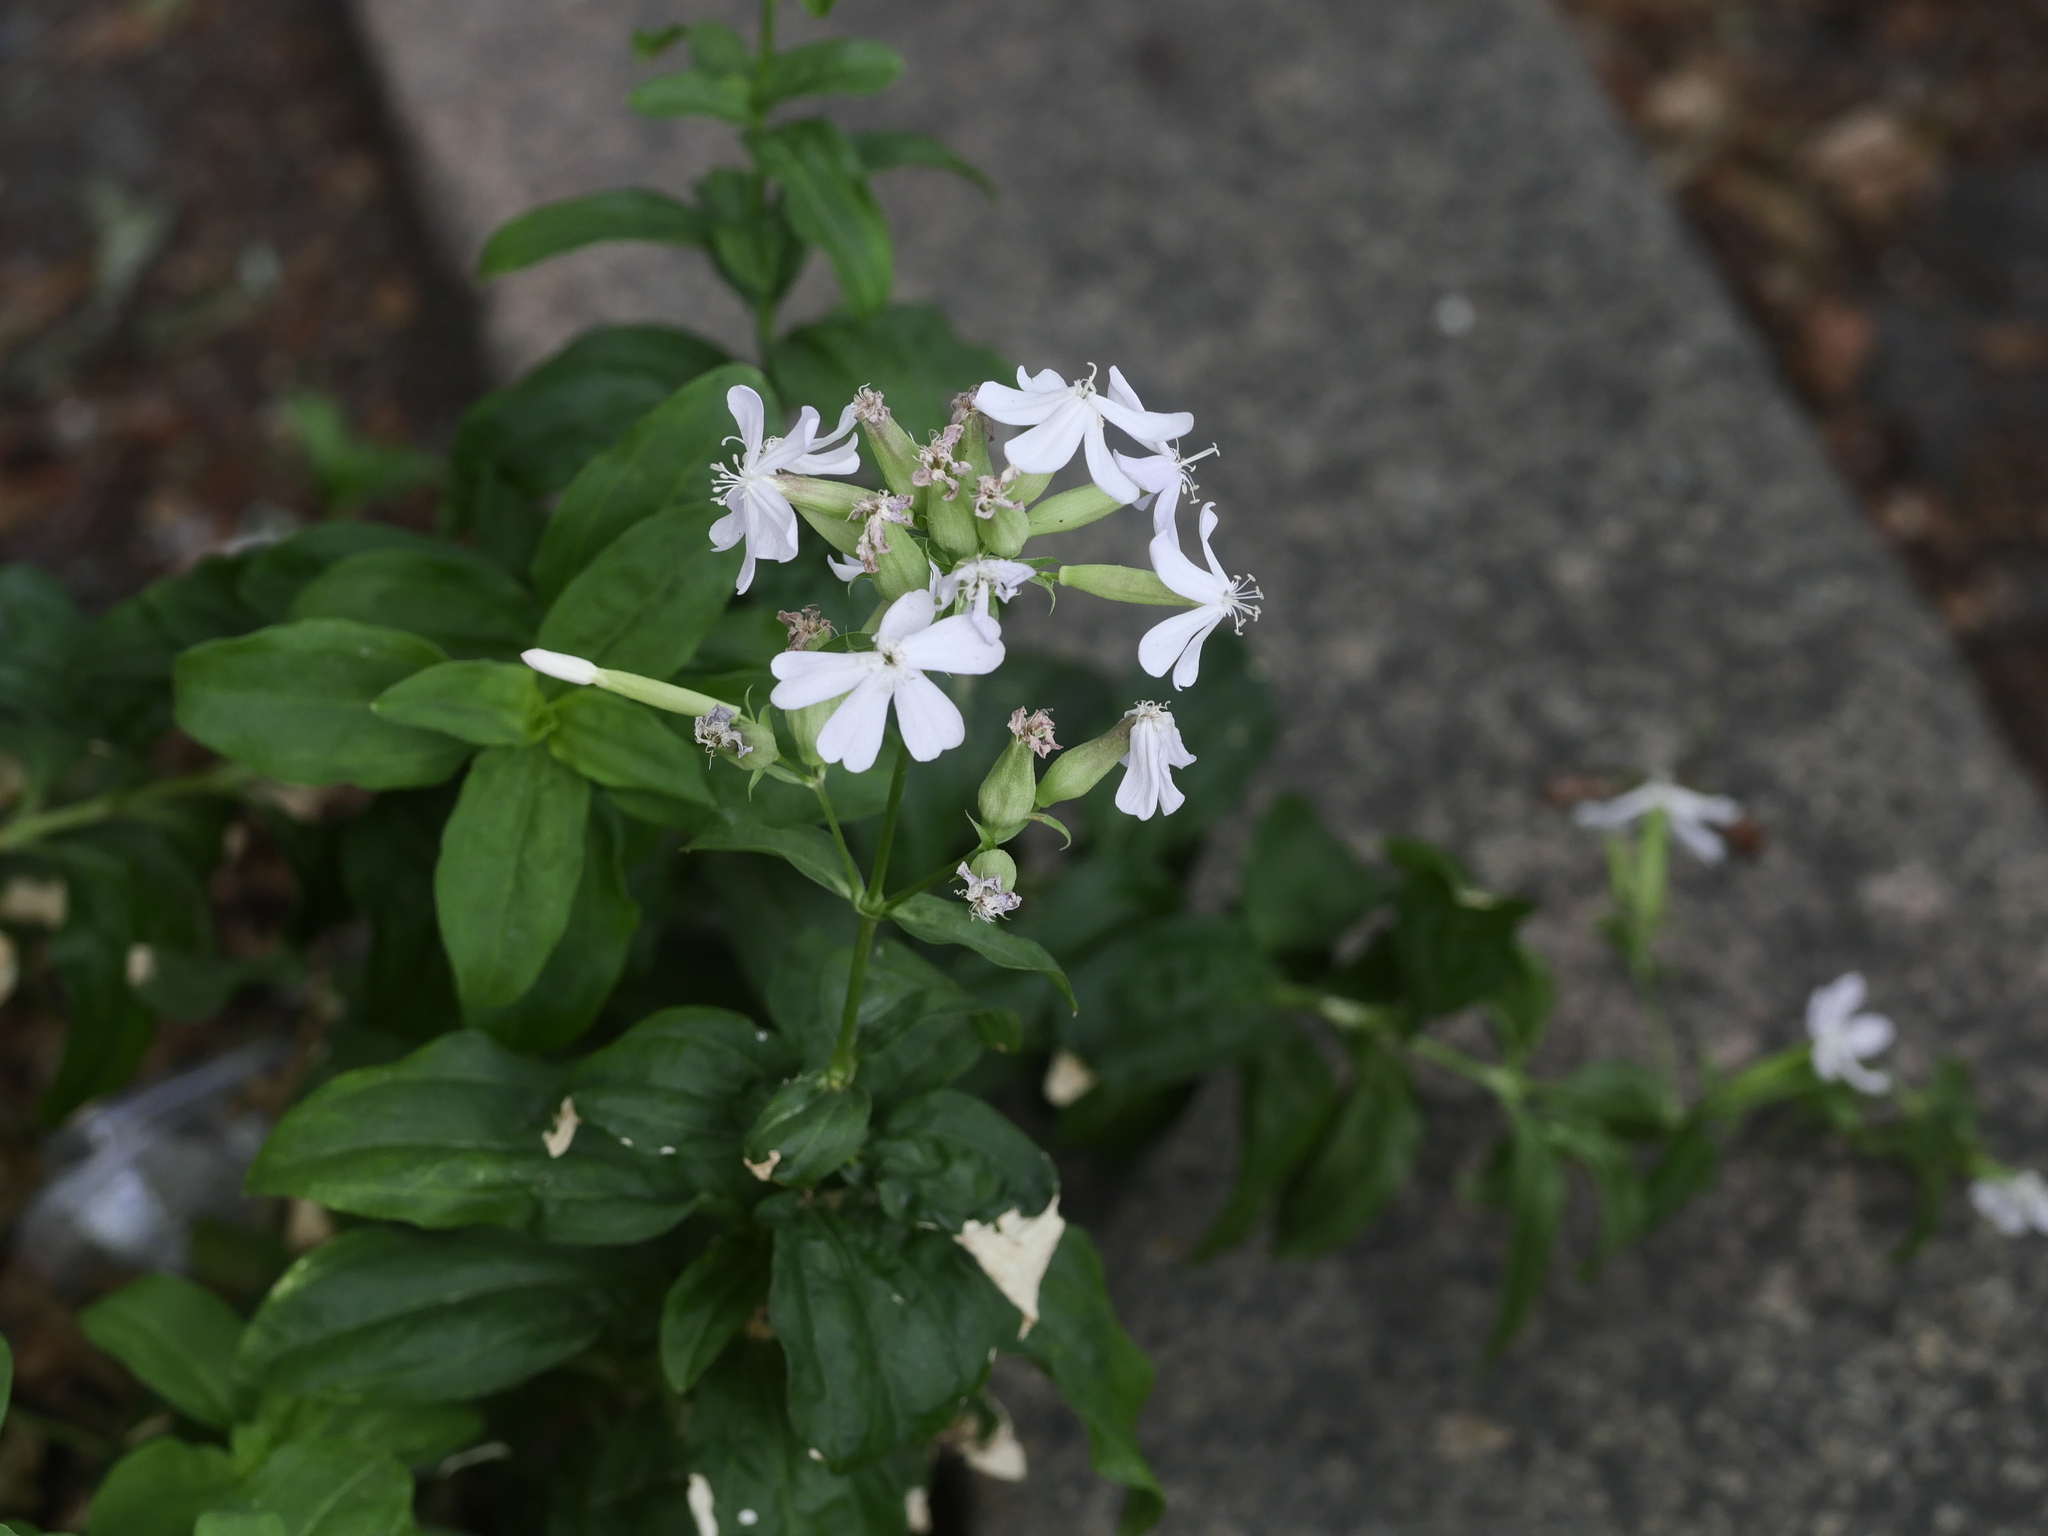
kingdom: Plantae
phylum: Tracheophyta
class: Magnoliopsida
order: Caryophyllales
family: Caryophyllaceae
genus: Saponaria
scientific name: Saponaria officinalis
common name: Soapwort
